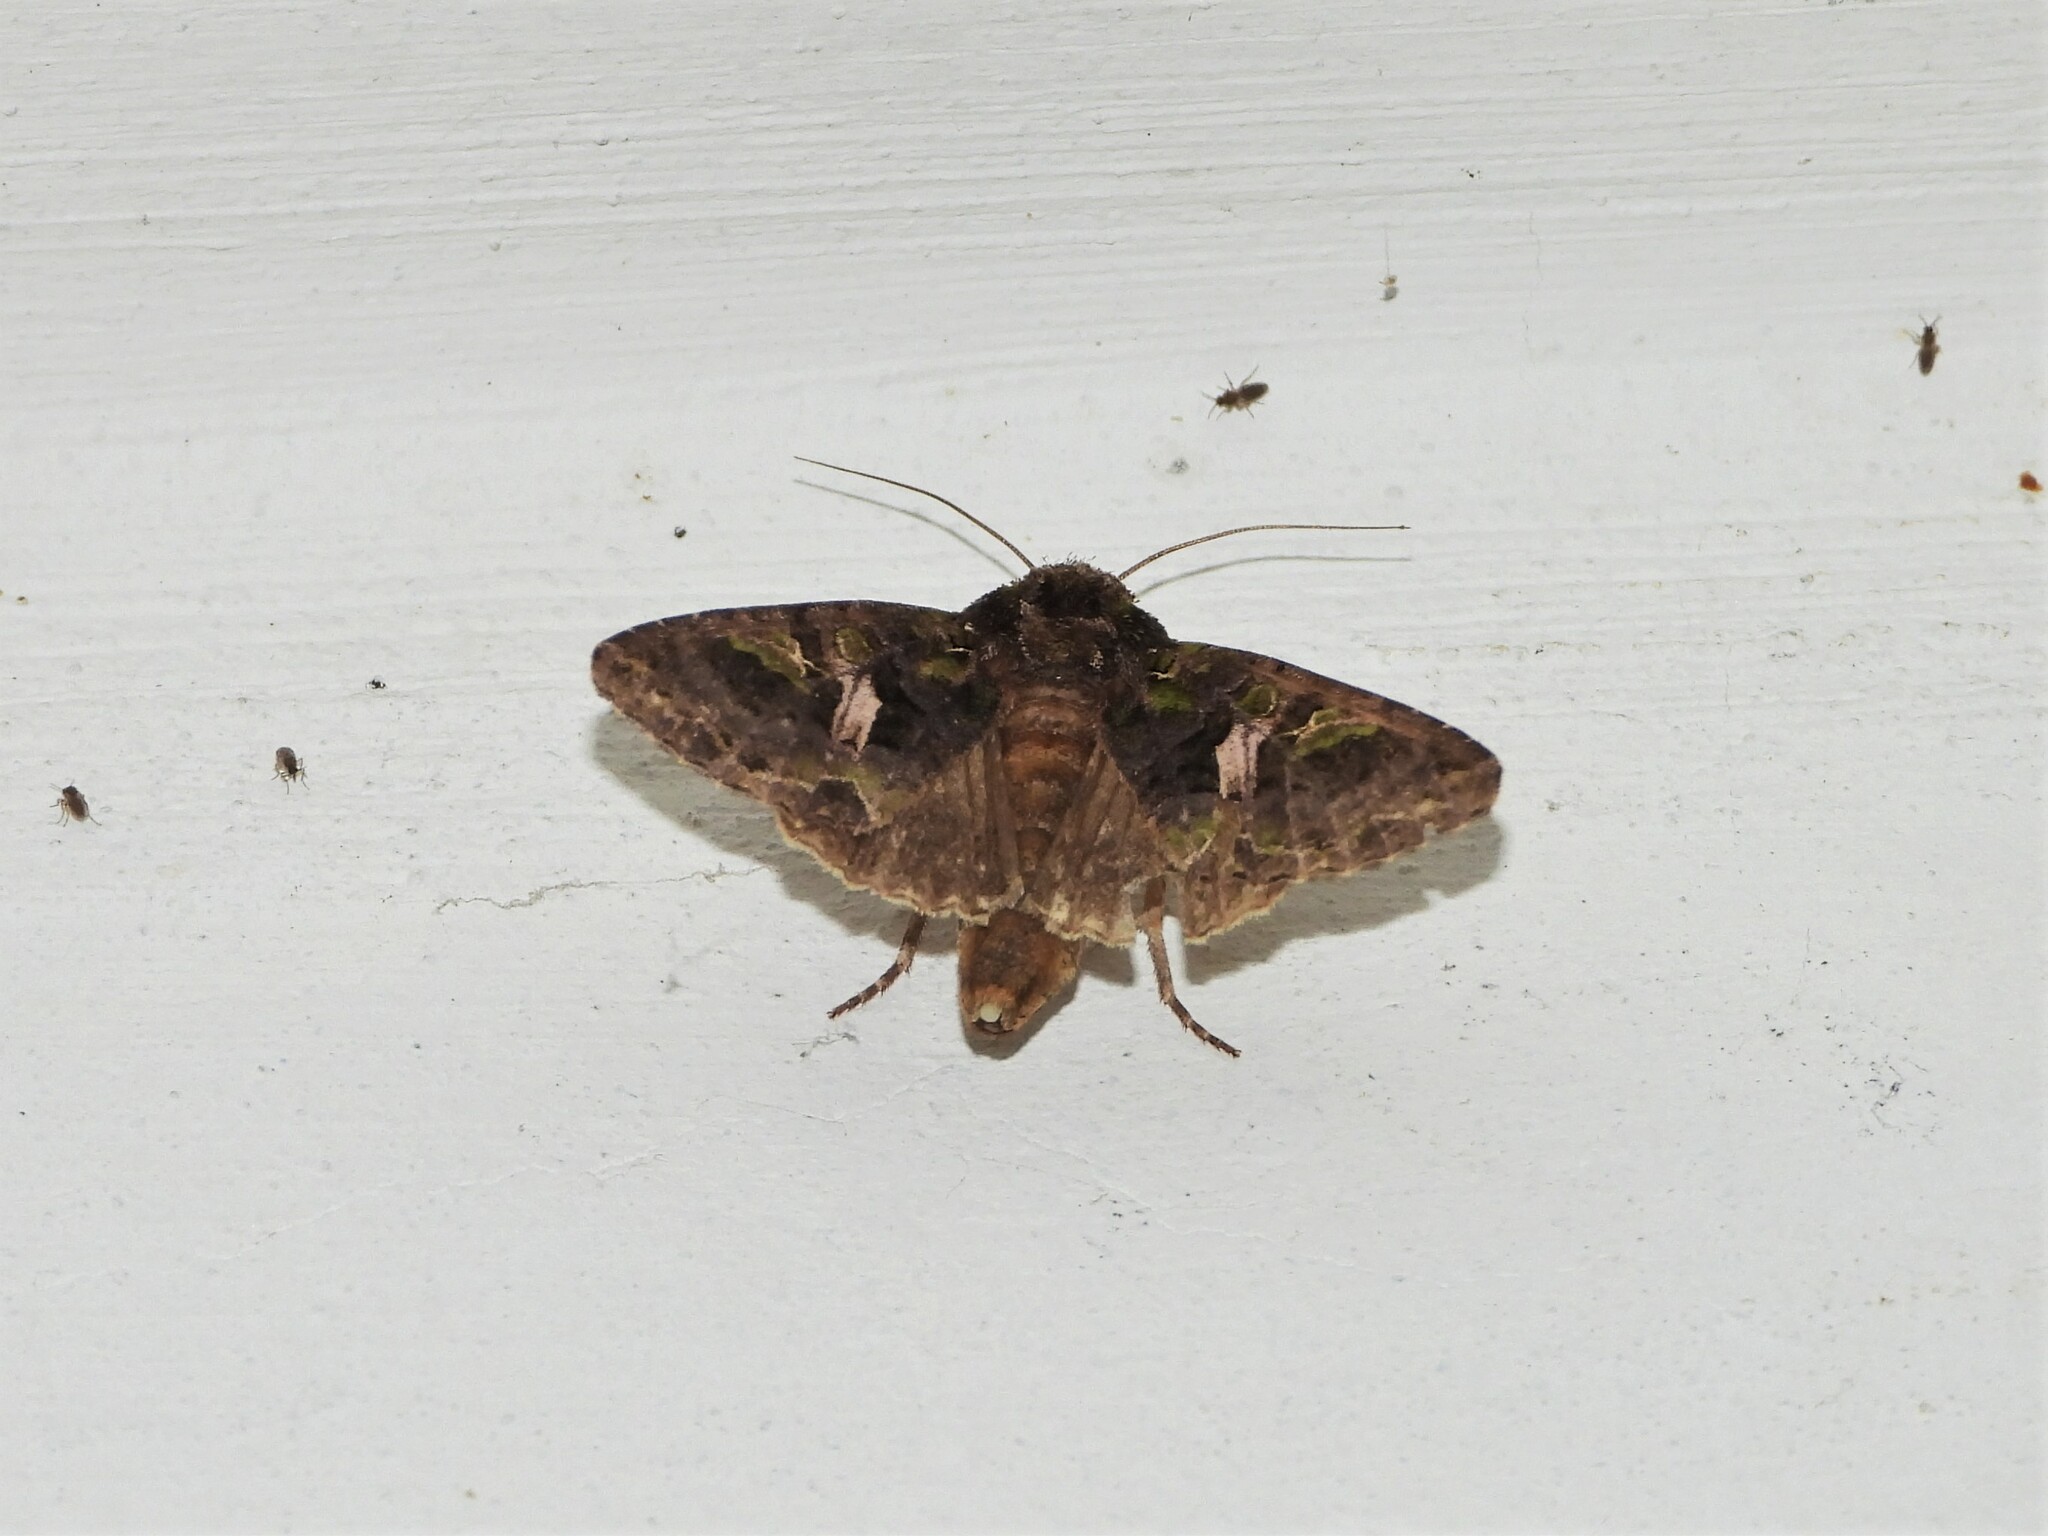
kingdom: Animalia
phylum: Arthropoda
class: Insecta
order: Lepidoptera
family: Noctuidae
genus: Trachea
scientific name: Trachea atriplicis
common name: Orache moth
